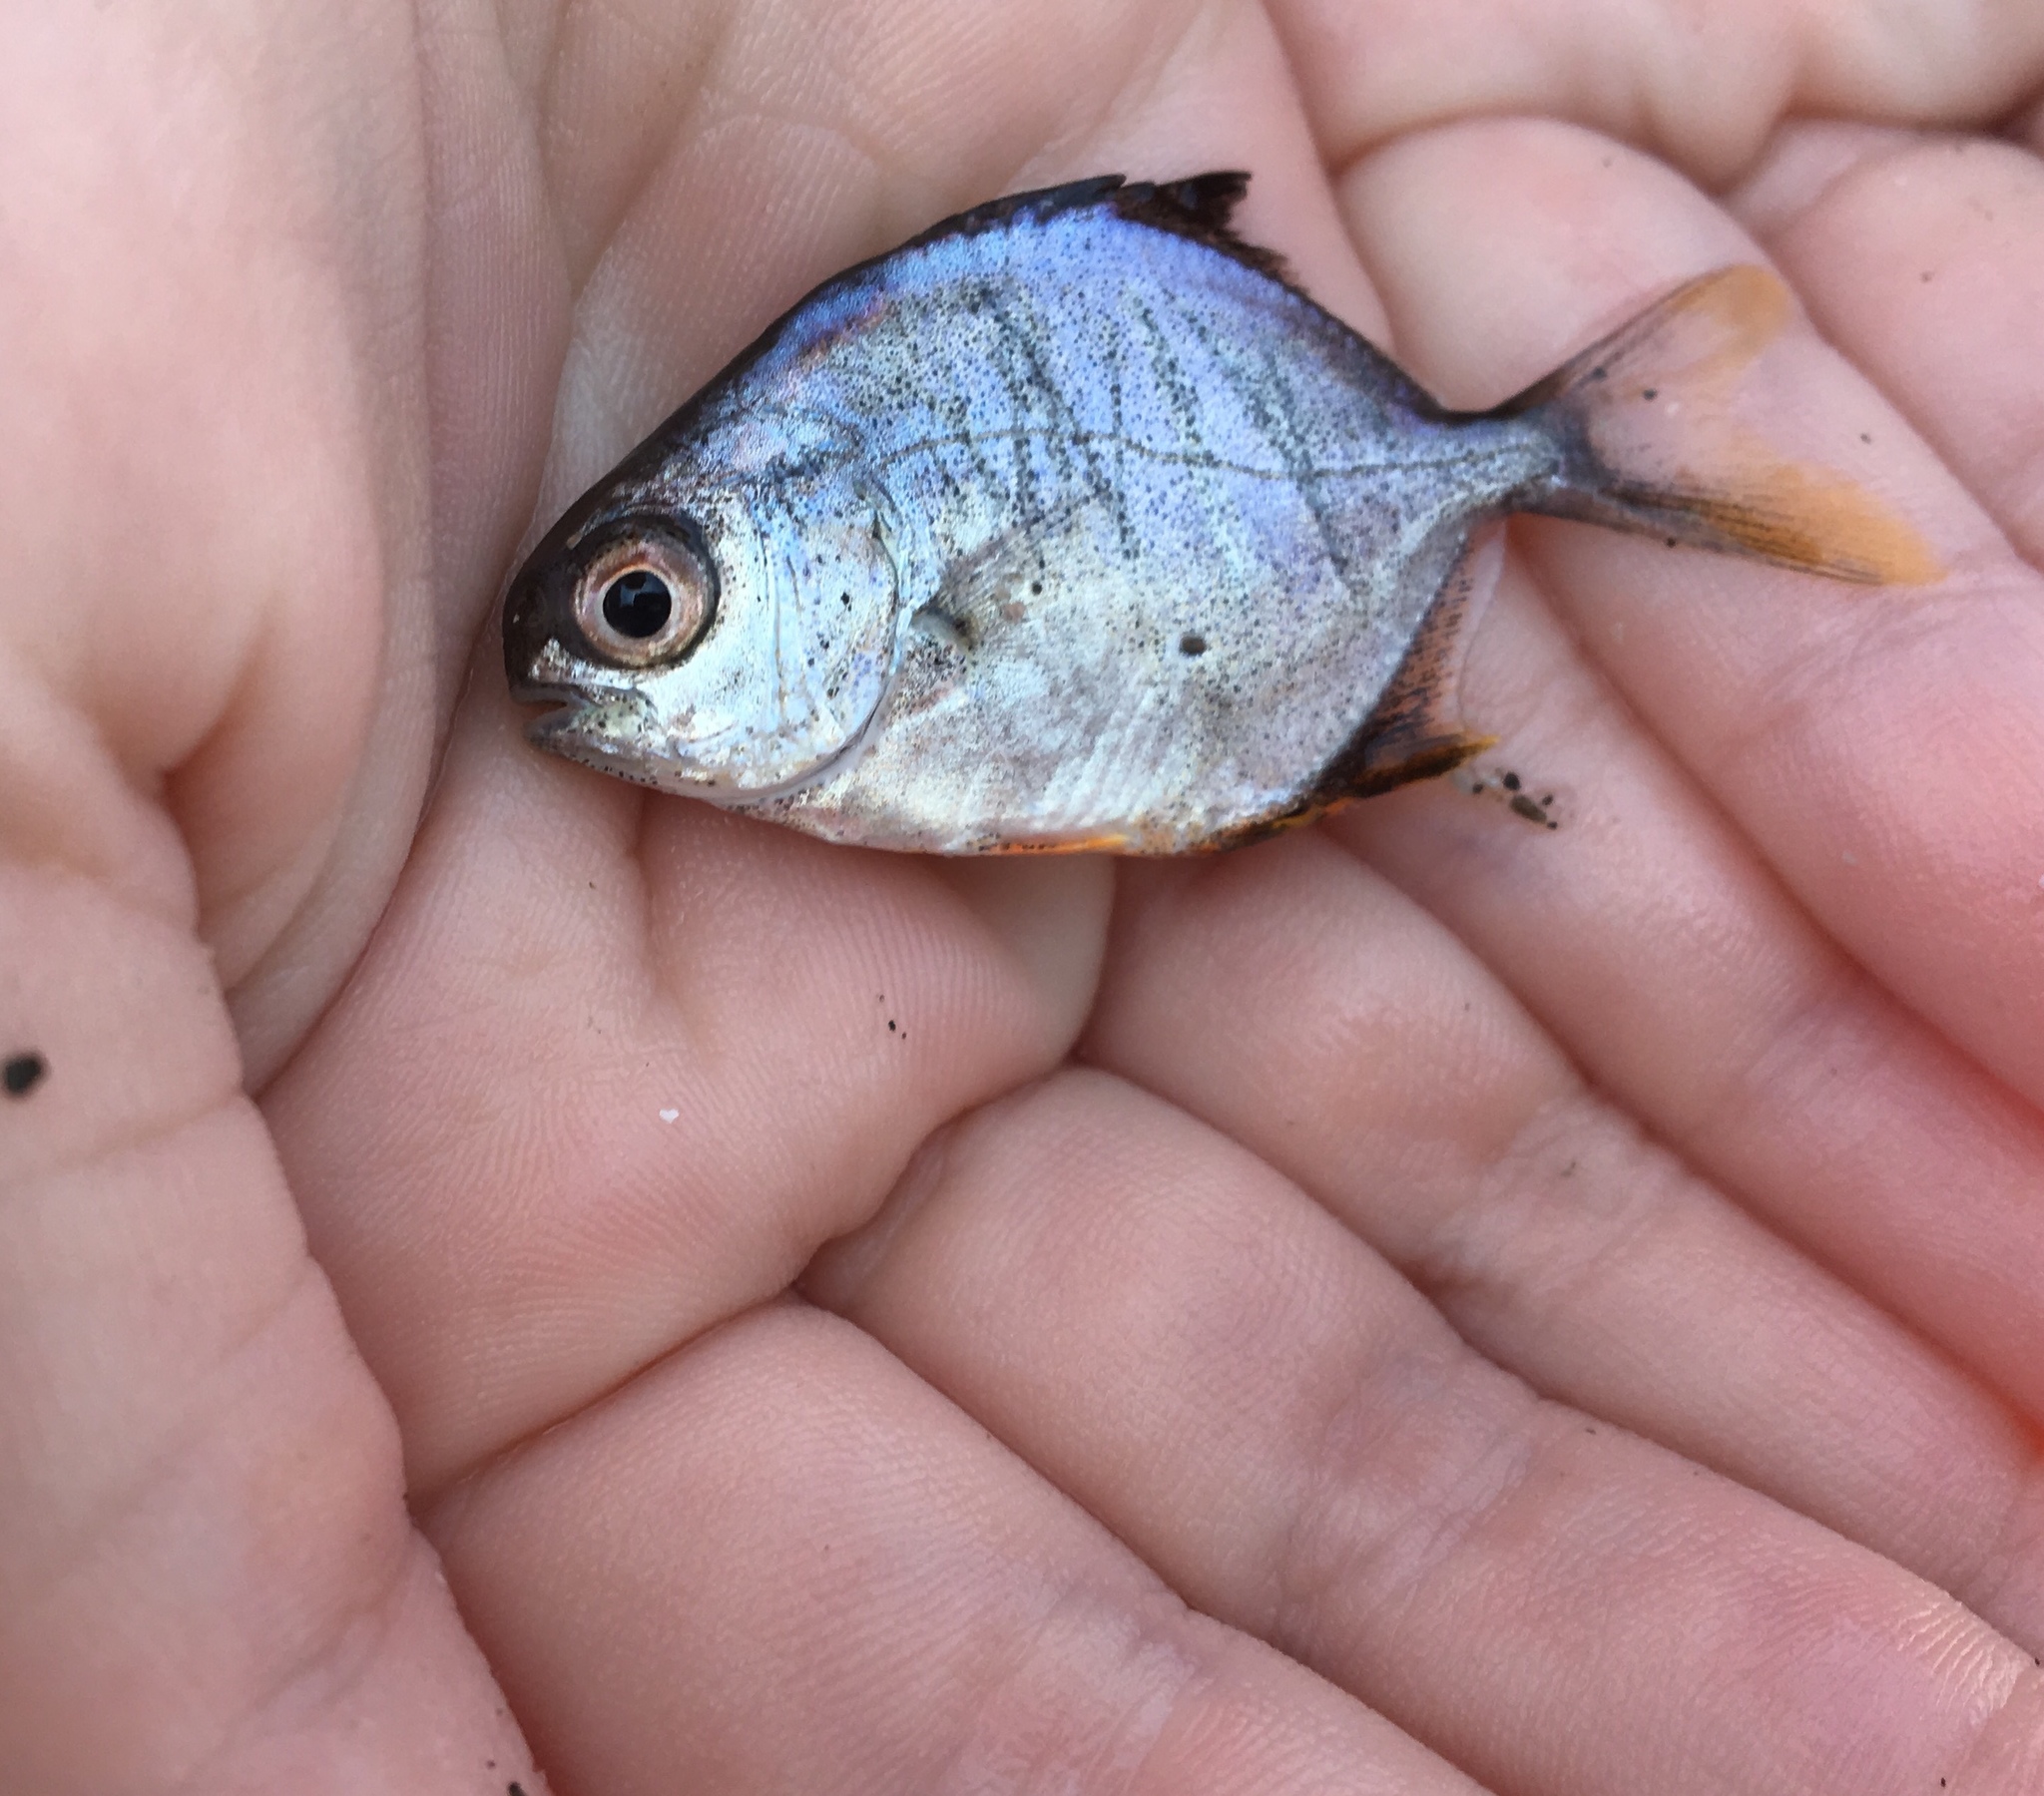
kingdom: Animalia
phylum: Chordata
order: Perciformes
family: Carangidae
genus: Trachinotus
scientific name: Trachinotus falcatus
